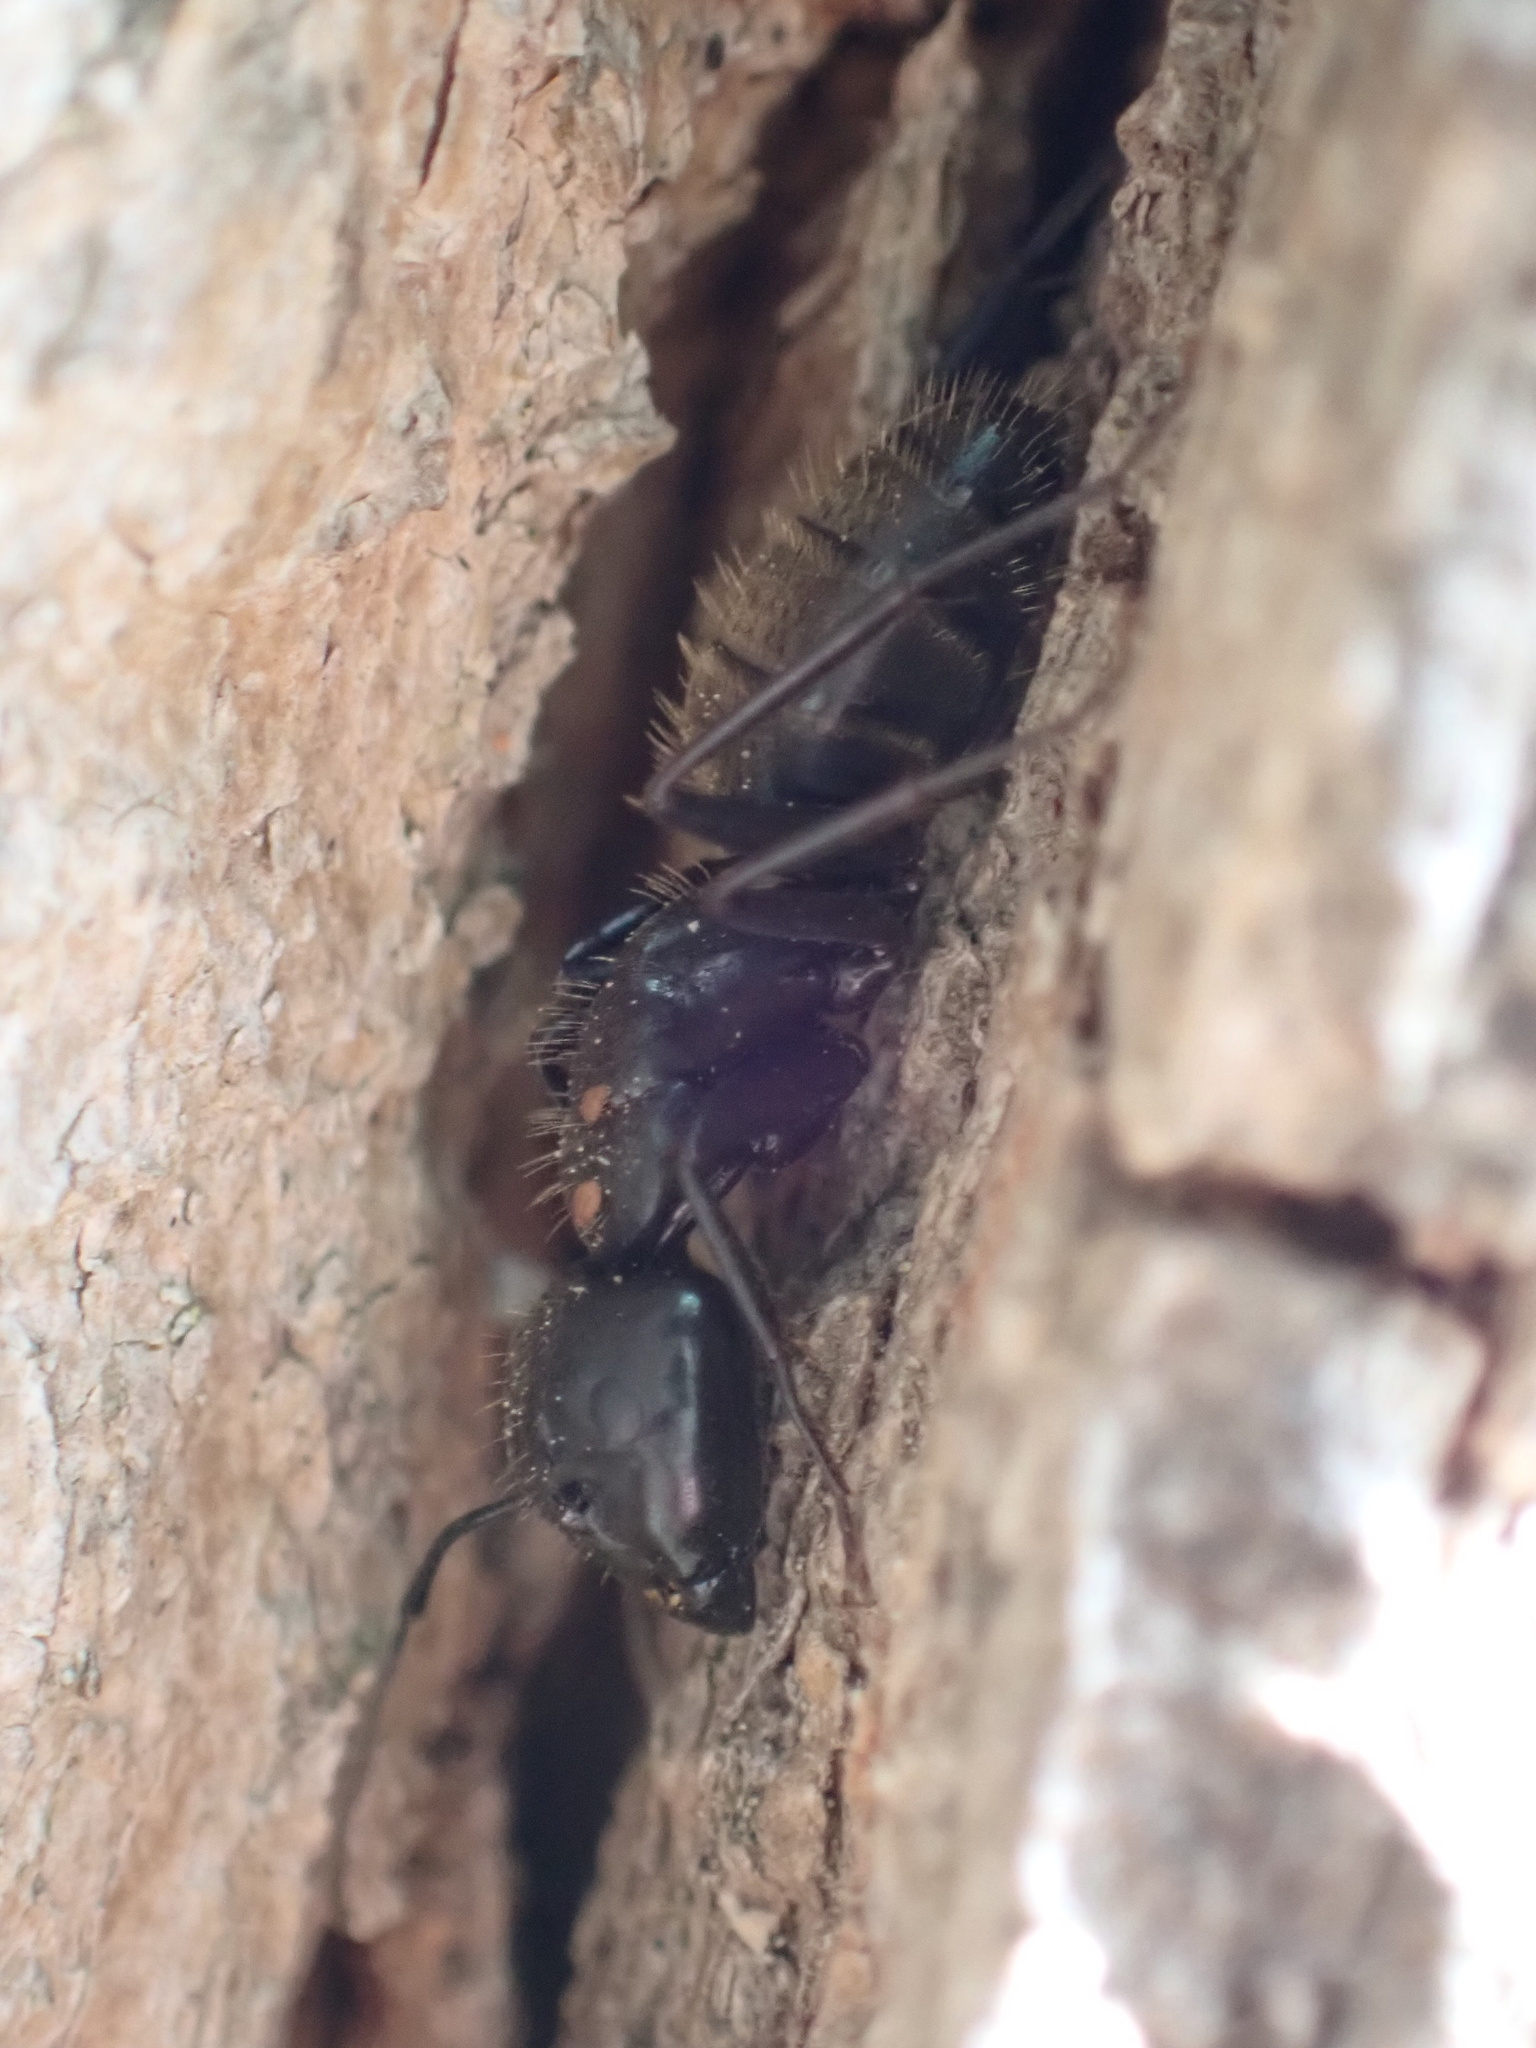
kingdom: Animalia
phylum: Arthropoda
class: Insecta
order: Hymenoptera
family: Formicidae
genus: Camponotus
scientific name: Camponotus pennsylvanicus
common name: Black carpenter ant
